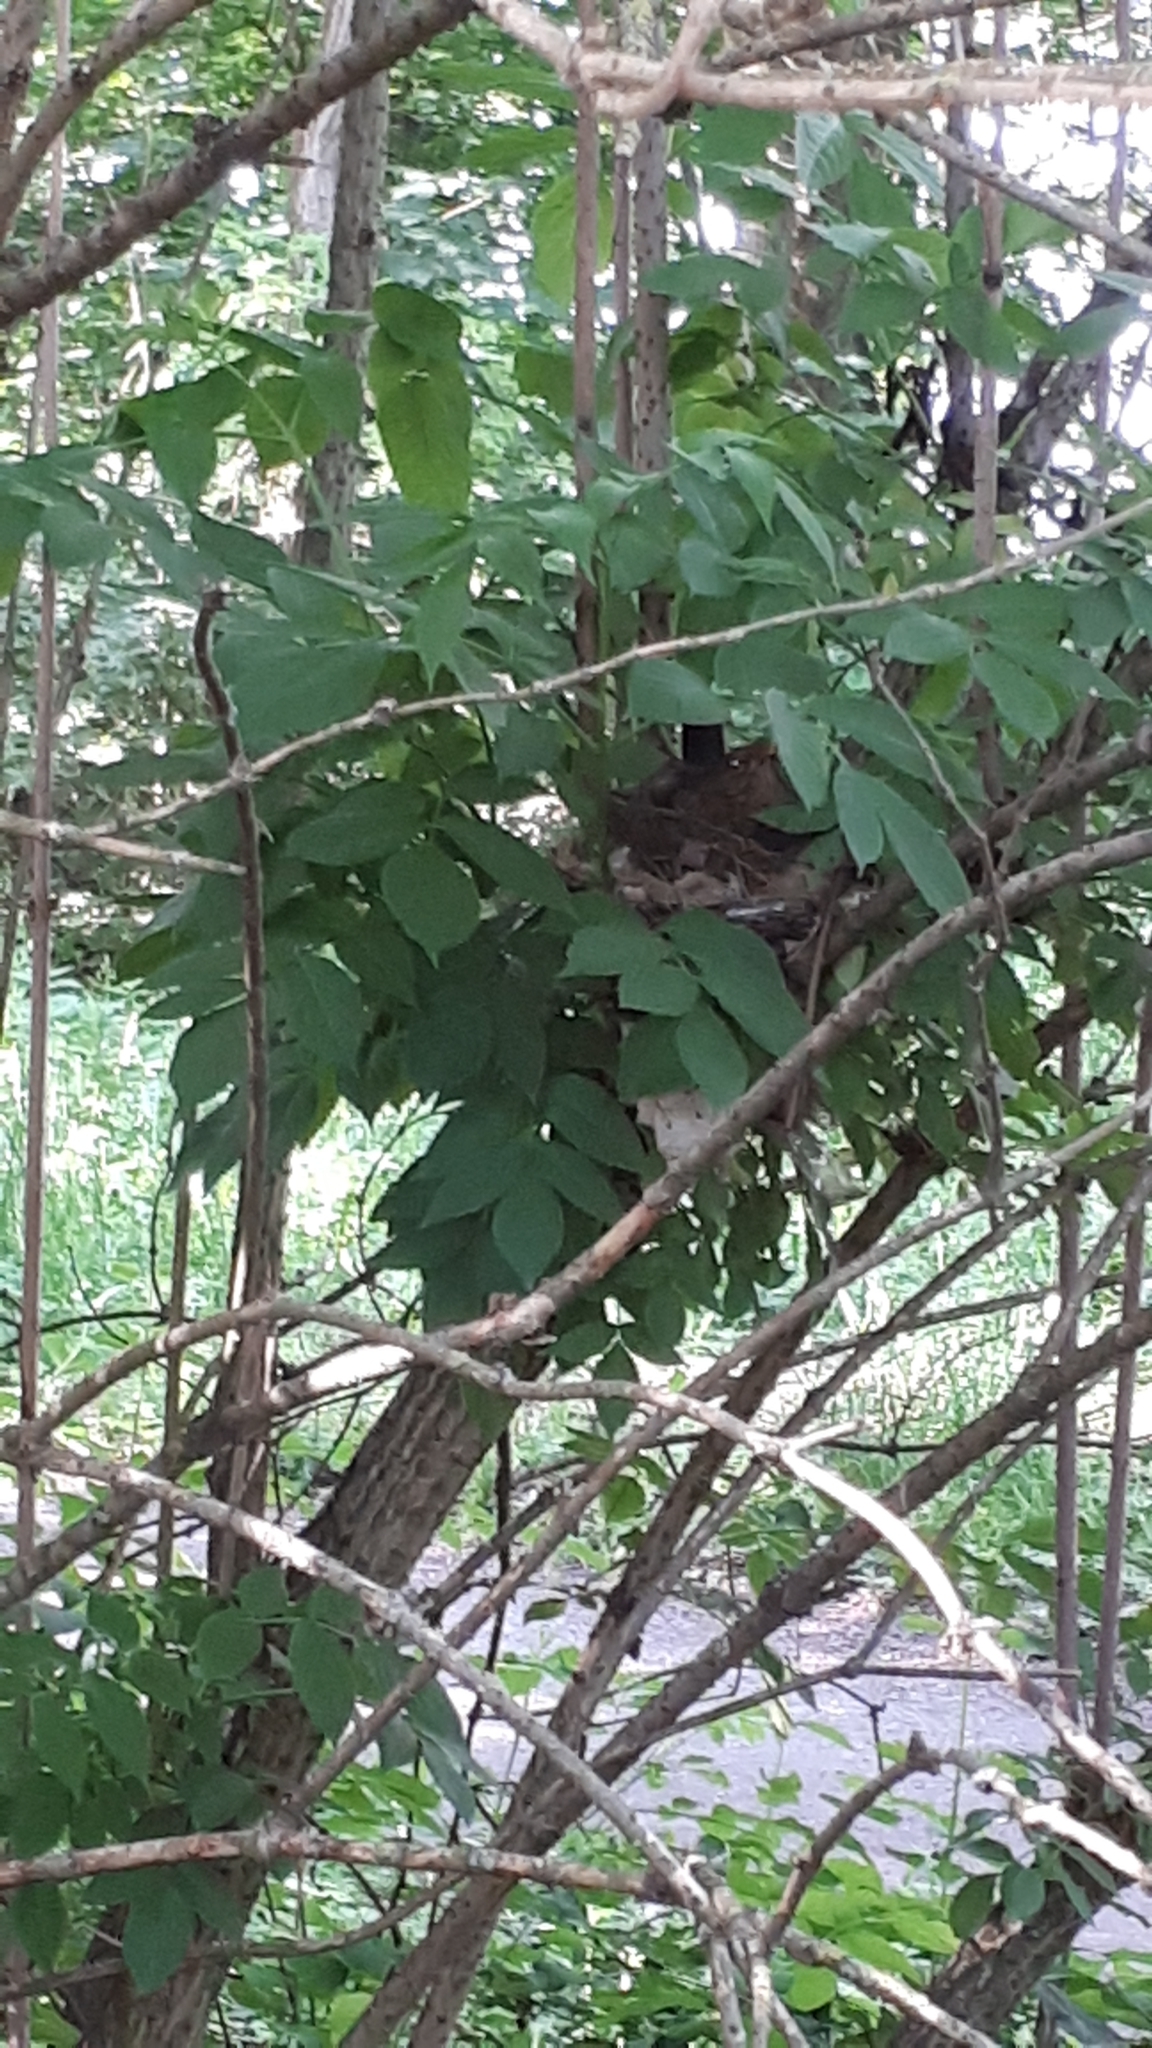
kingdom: Animalia
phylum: Chordata
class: Aves
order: Passeriformes
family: Turdidae
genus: Turdus
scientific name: Turdus merula
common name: Common blackbird
